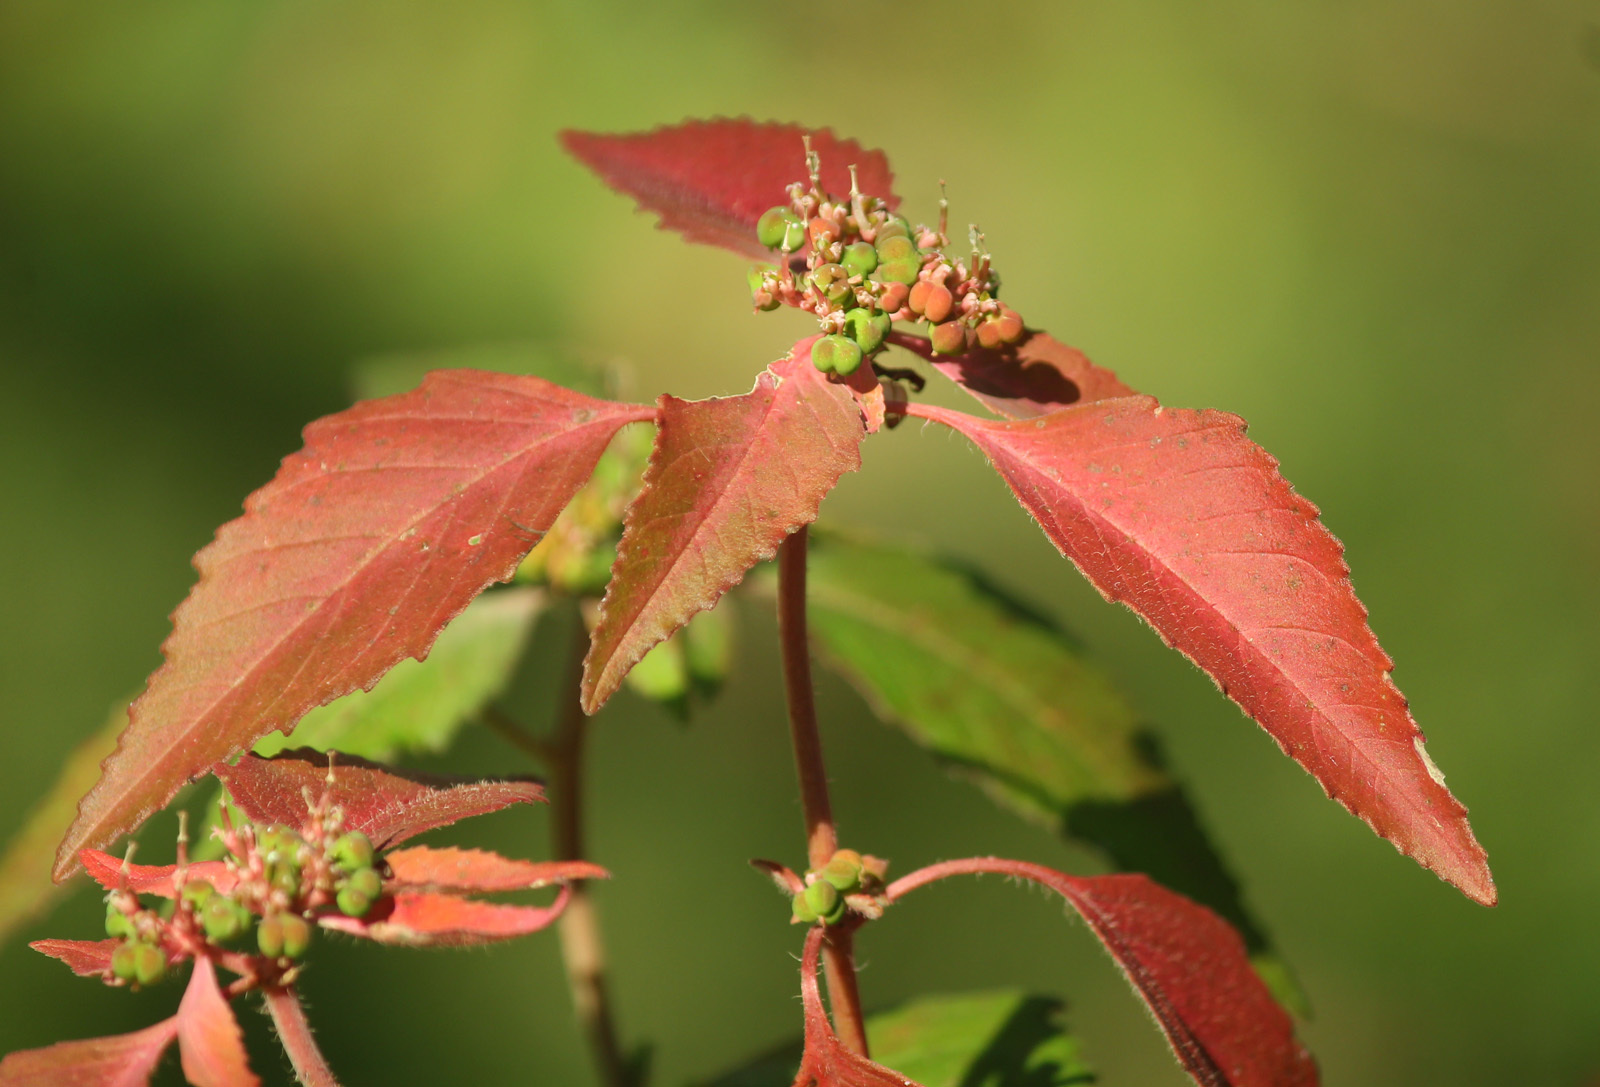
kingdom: Plantae
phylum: Tracheophyta
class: Magnoliopsida
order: Malpighiales
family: Euphorbiaceae
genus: Euphorbia
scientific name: Euphorbia dentata
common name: Dentate spurge
